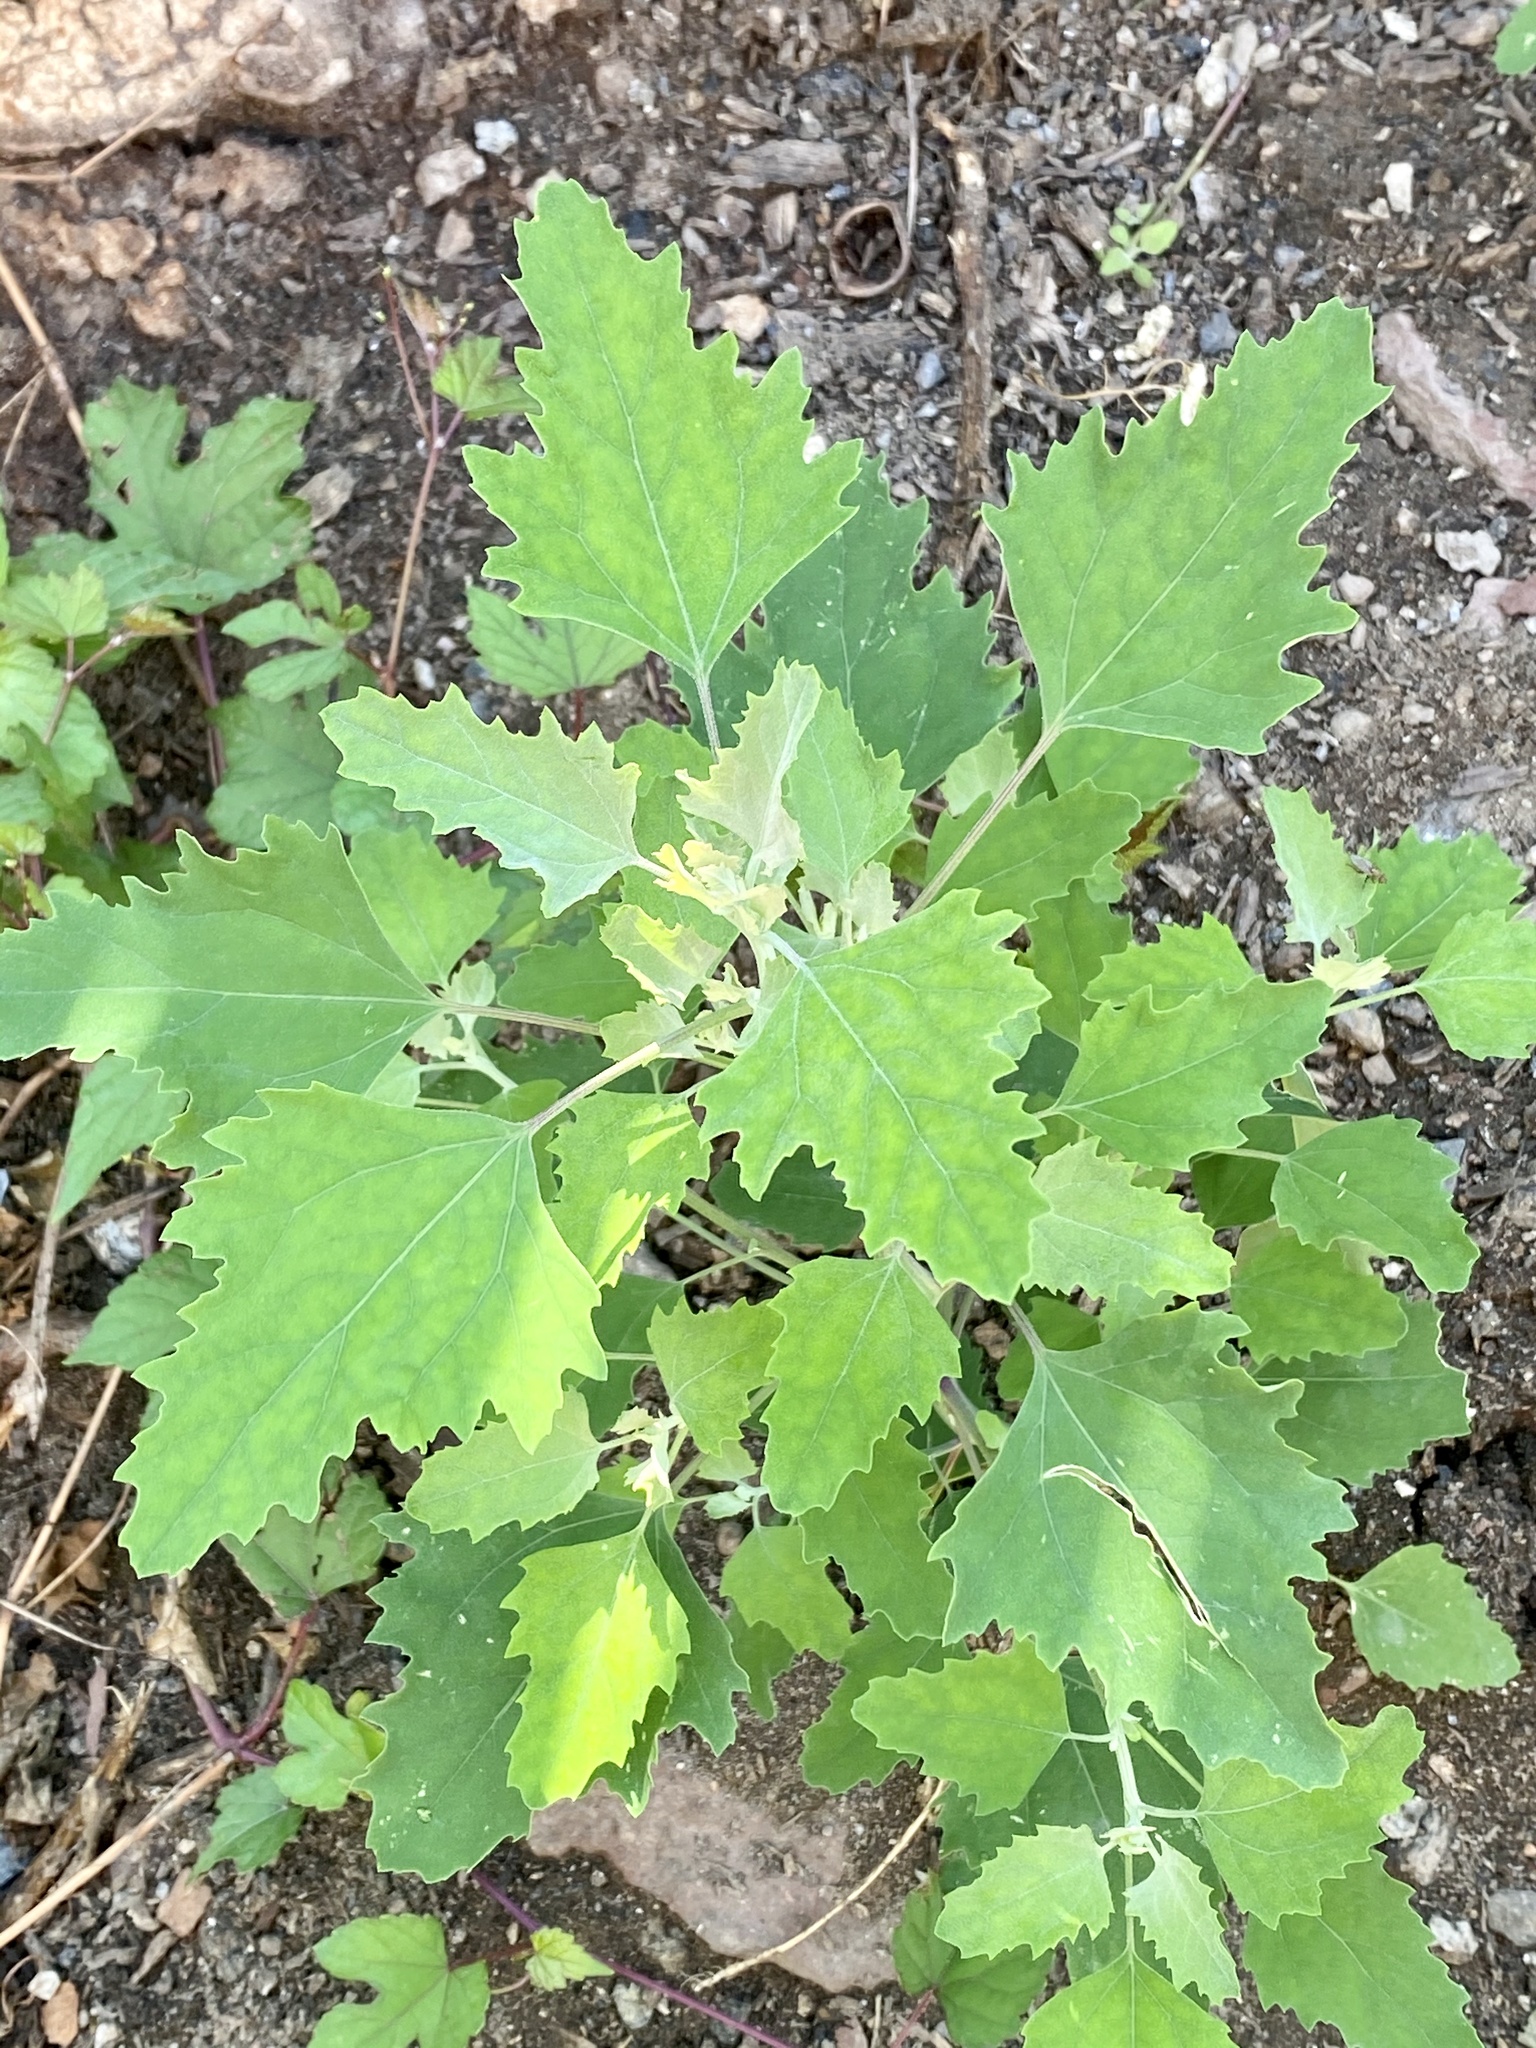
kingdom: Plantae
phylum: Tracheophyta
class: Magnoliopsida
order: Caryophyllales
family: Amaranthaceae
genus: Chenopodium
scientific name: Chenopodium album
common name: Fat-hen
